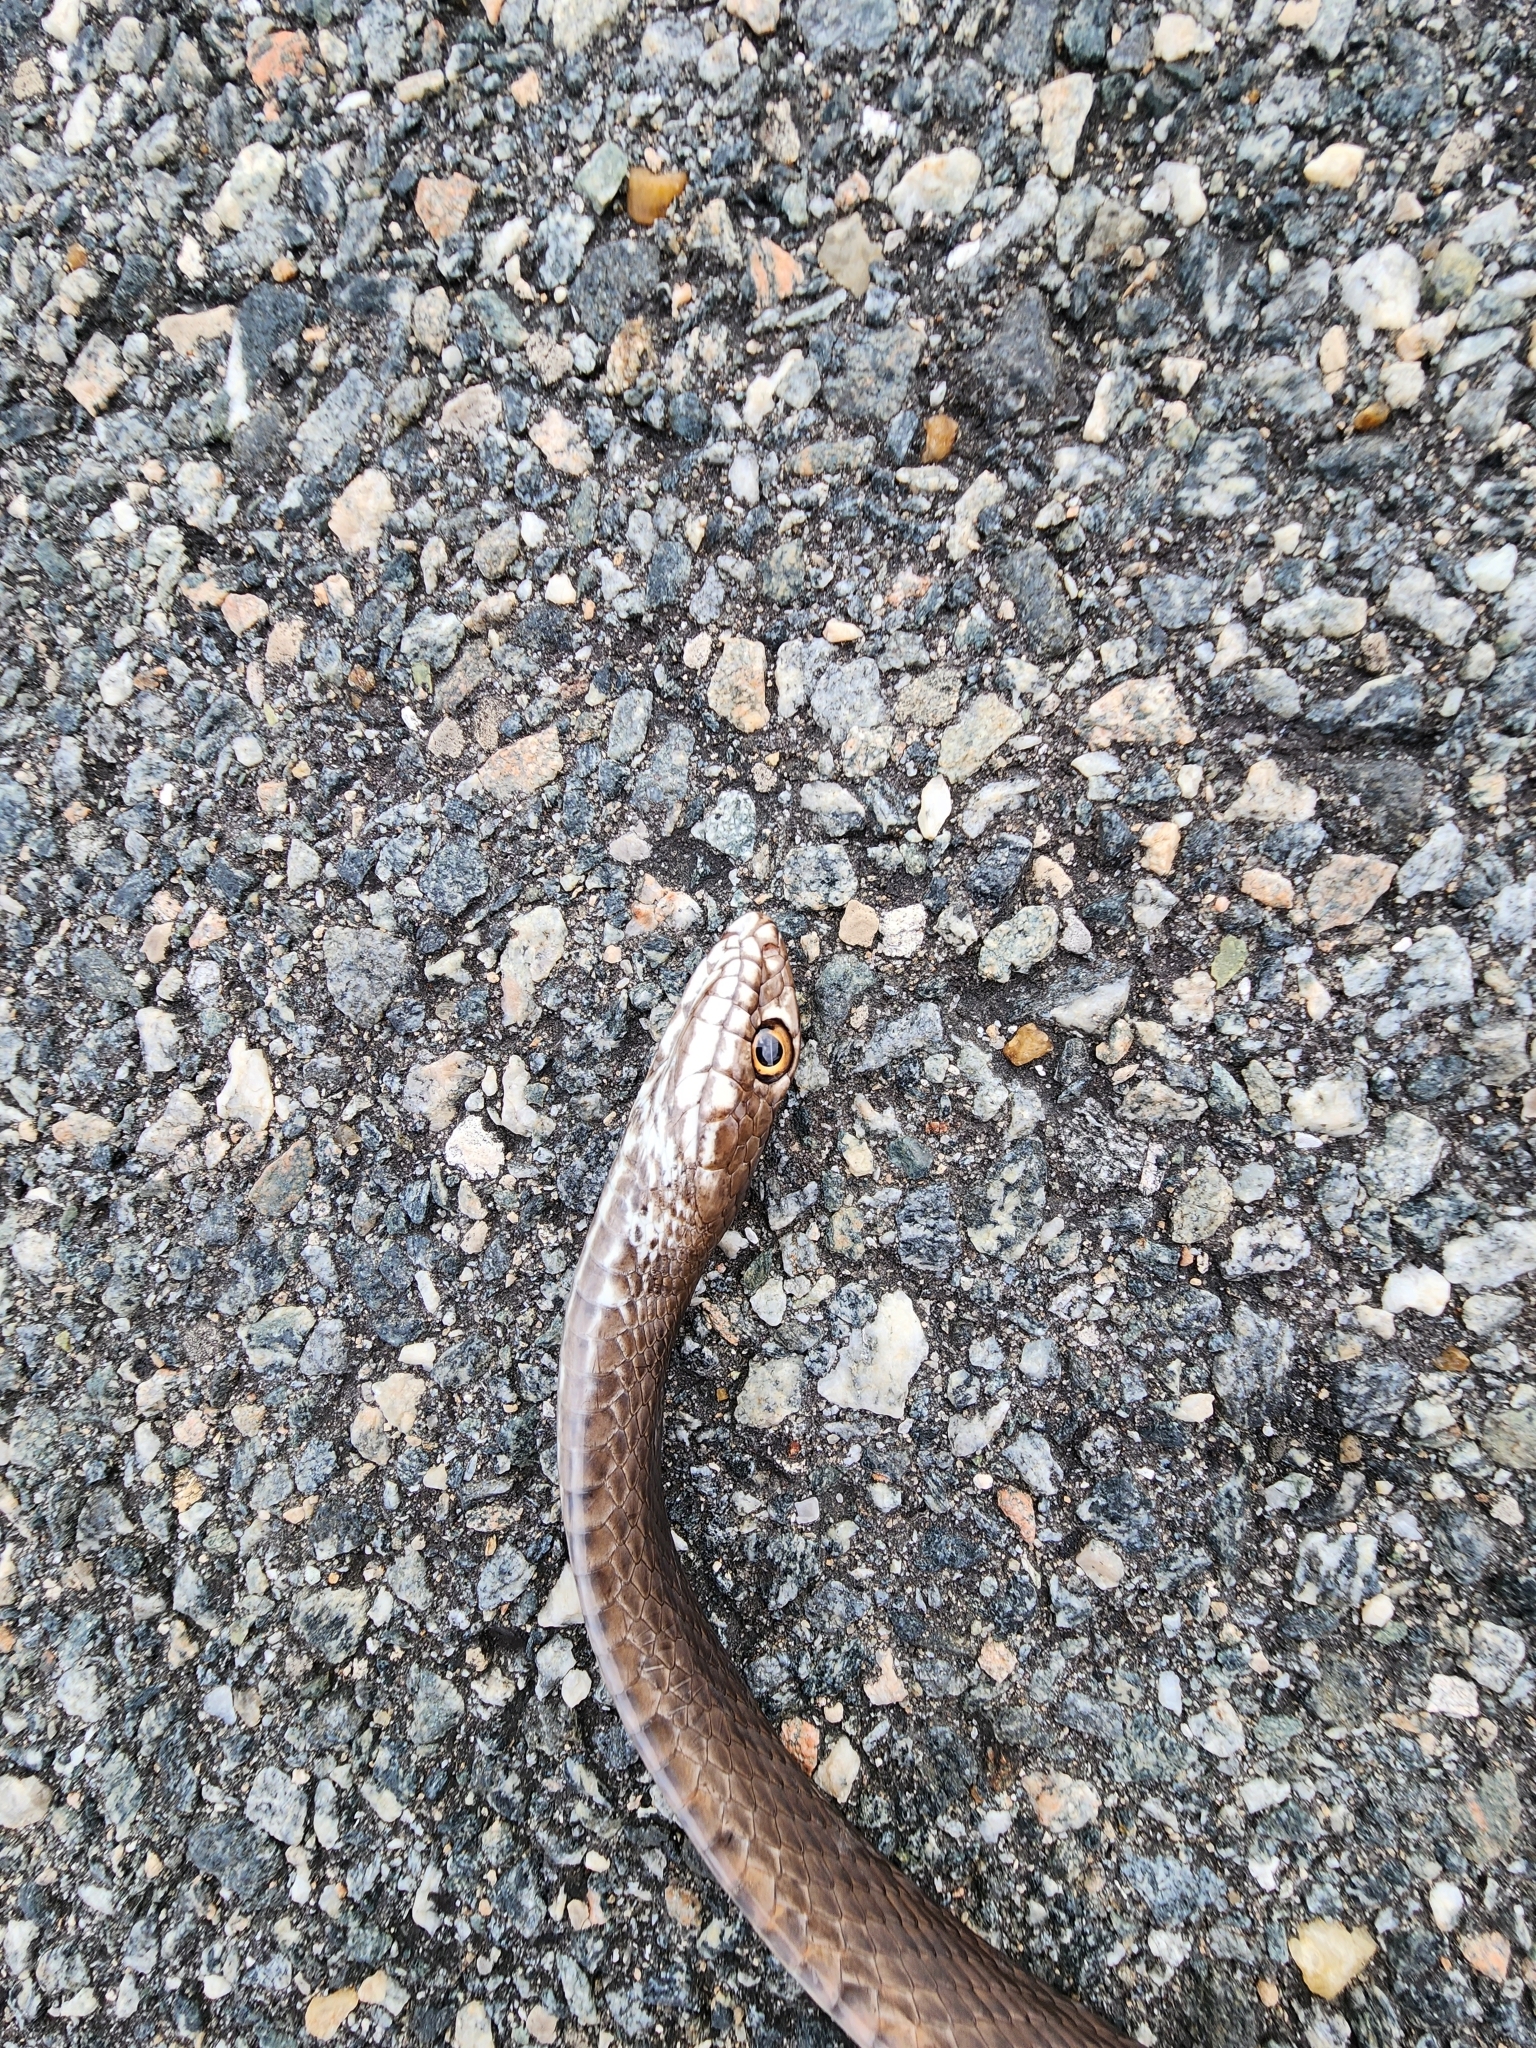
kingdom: Animalia
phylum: Chordata
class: Squamata
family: Colubridae
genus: Masticophis
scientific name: Masticophis flagellum
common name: Coachwhip
